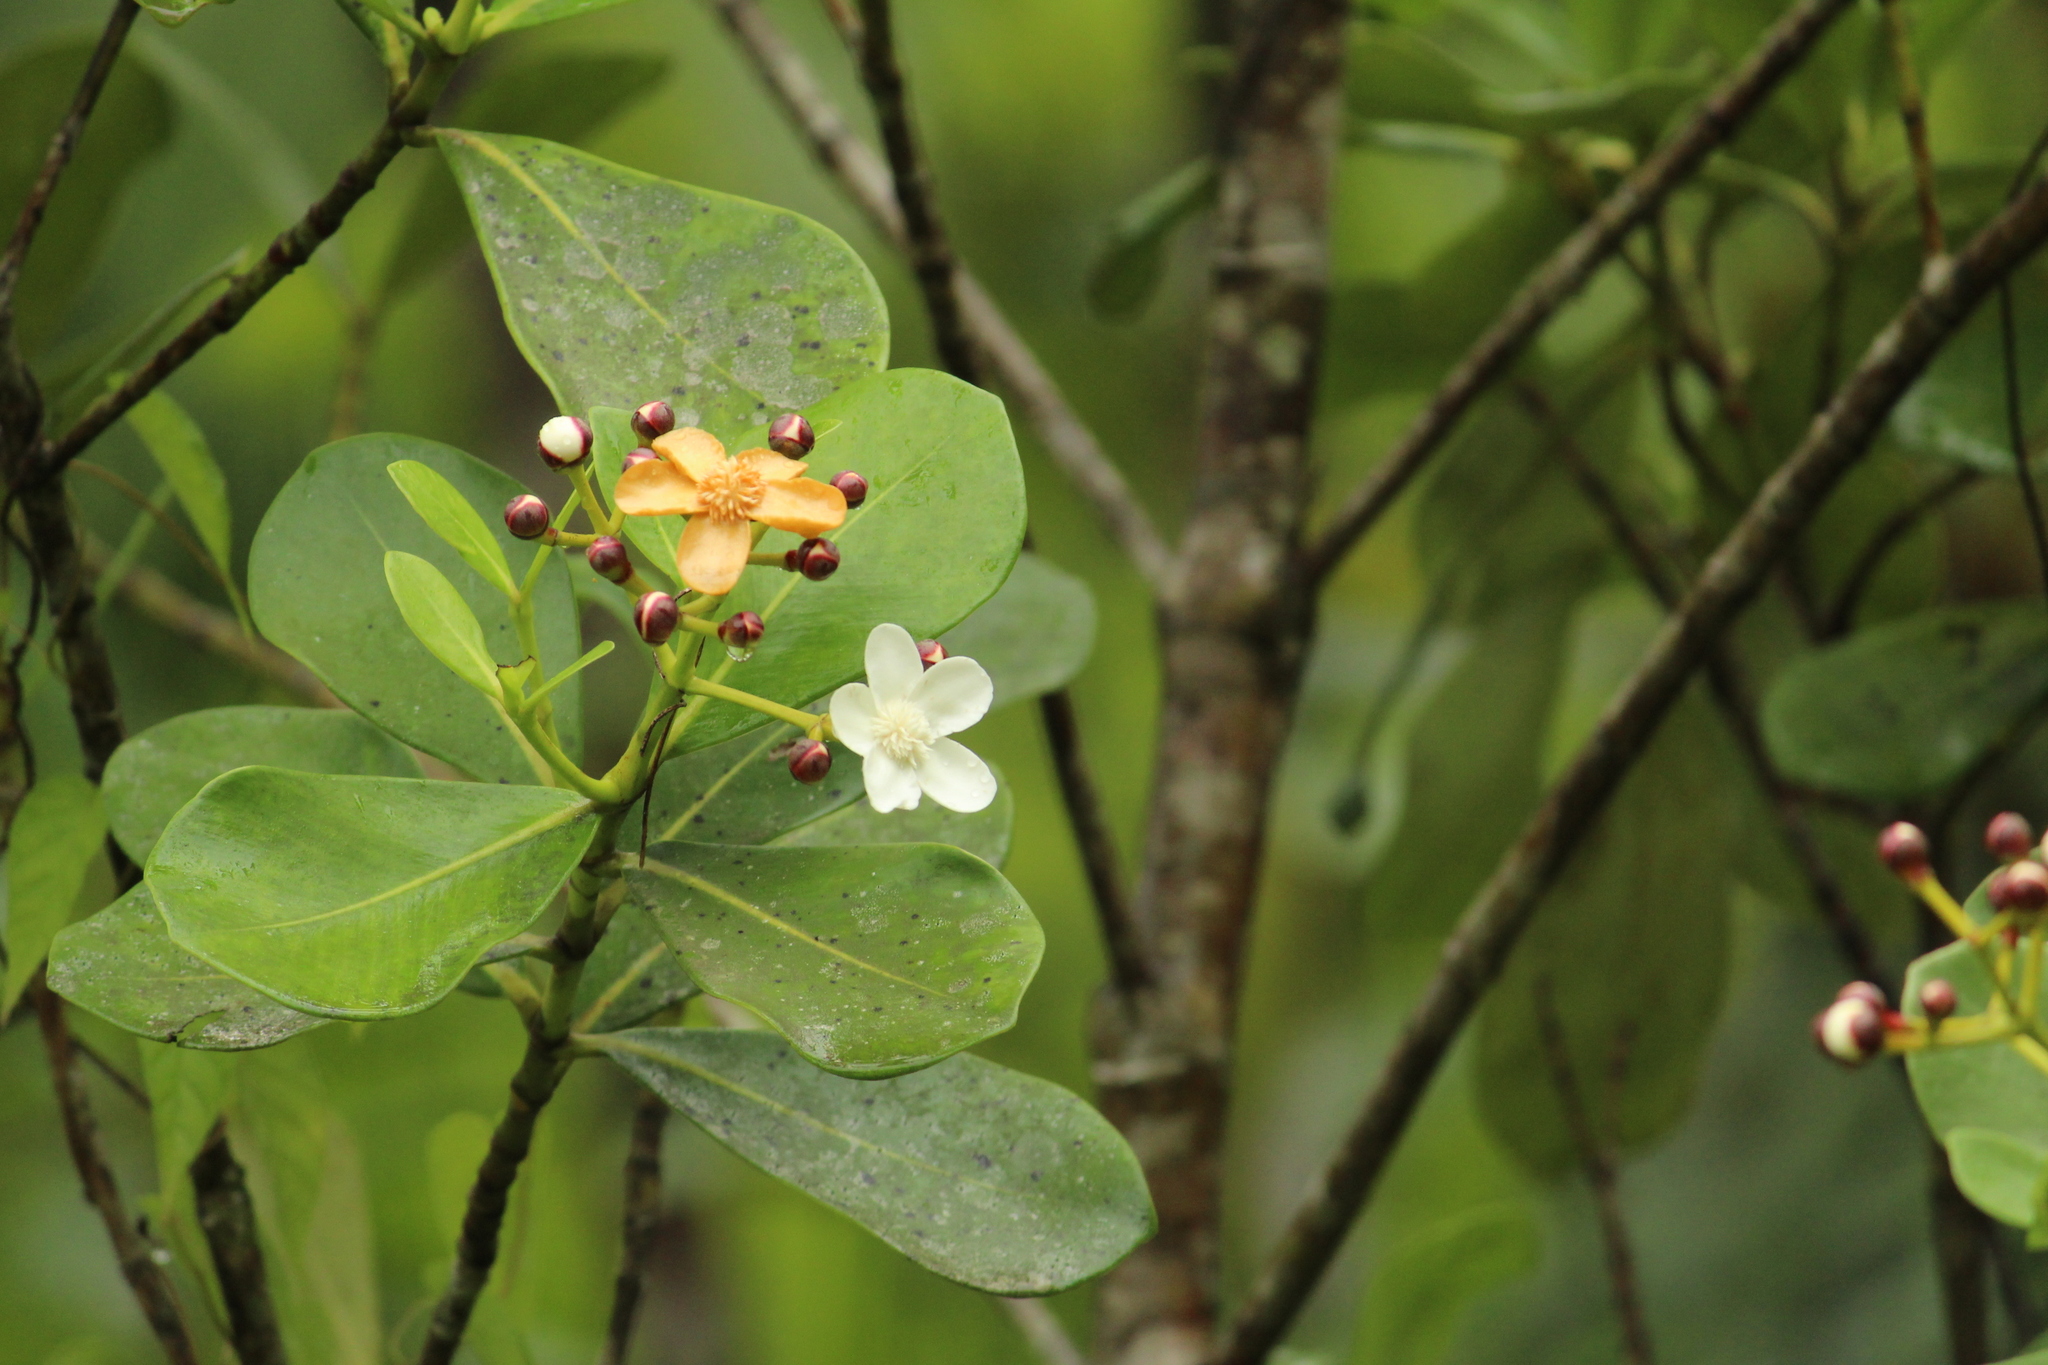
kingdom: Plantae
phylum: Tracheophyta
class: Magnoliopsida
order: Malpighiales
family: Clusiaceae
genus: Clusia
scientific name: Clusia criuva
